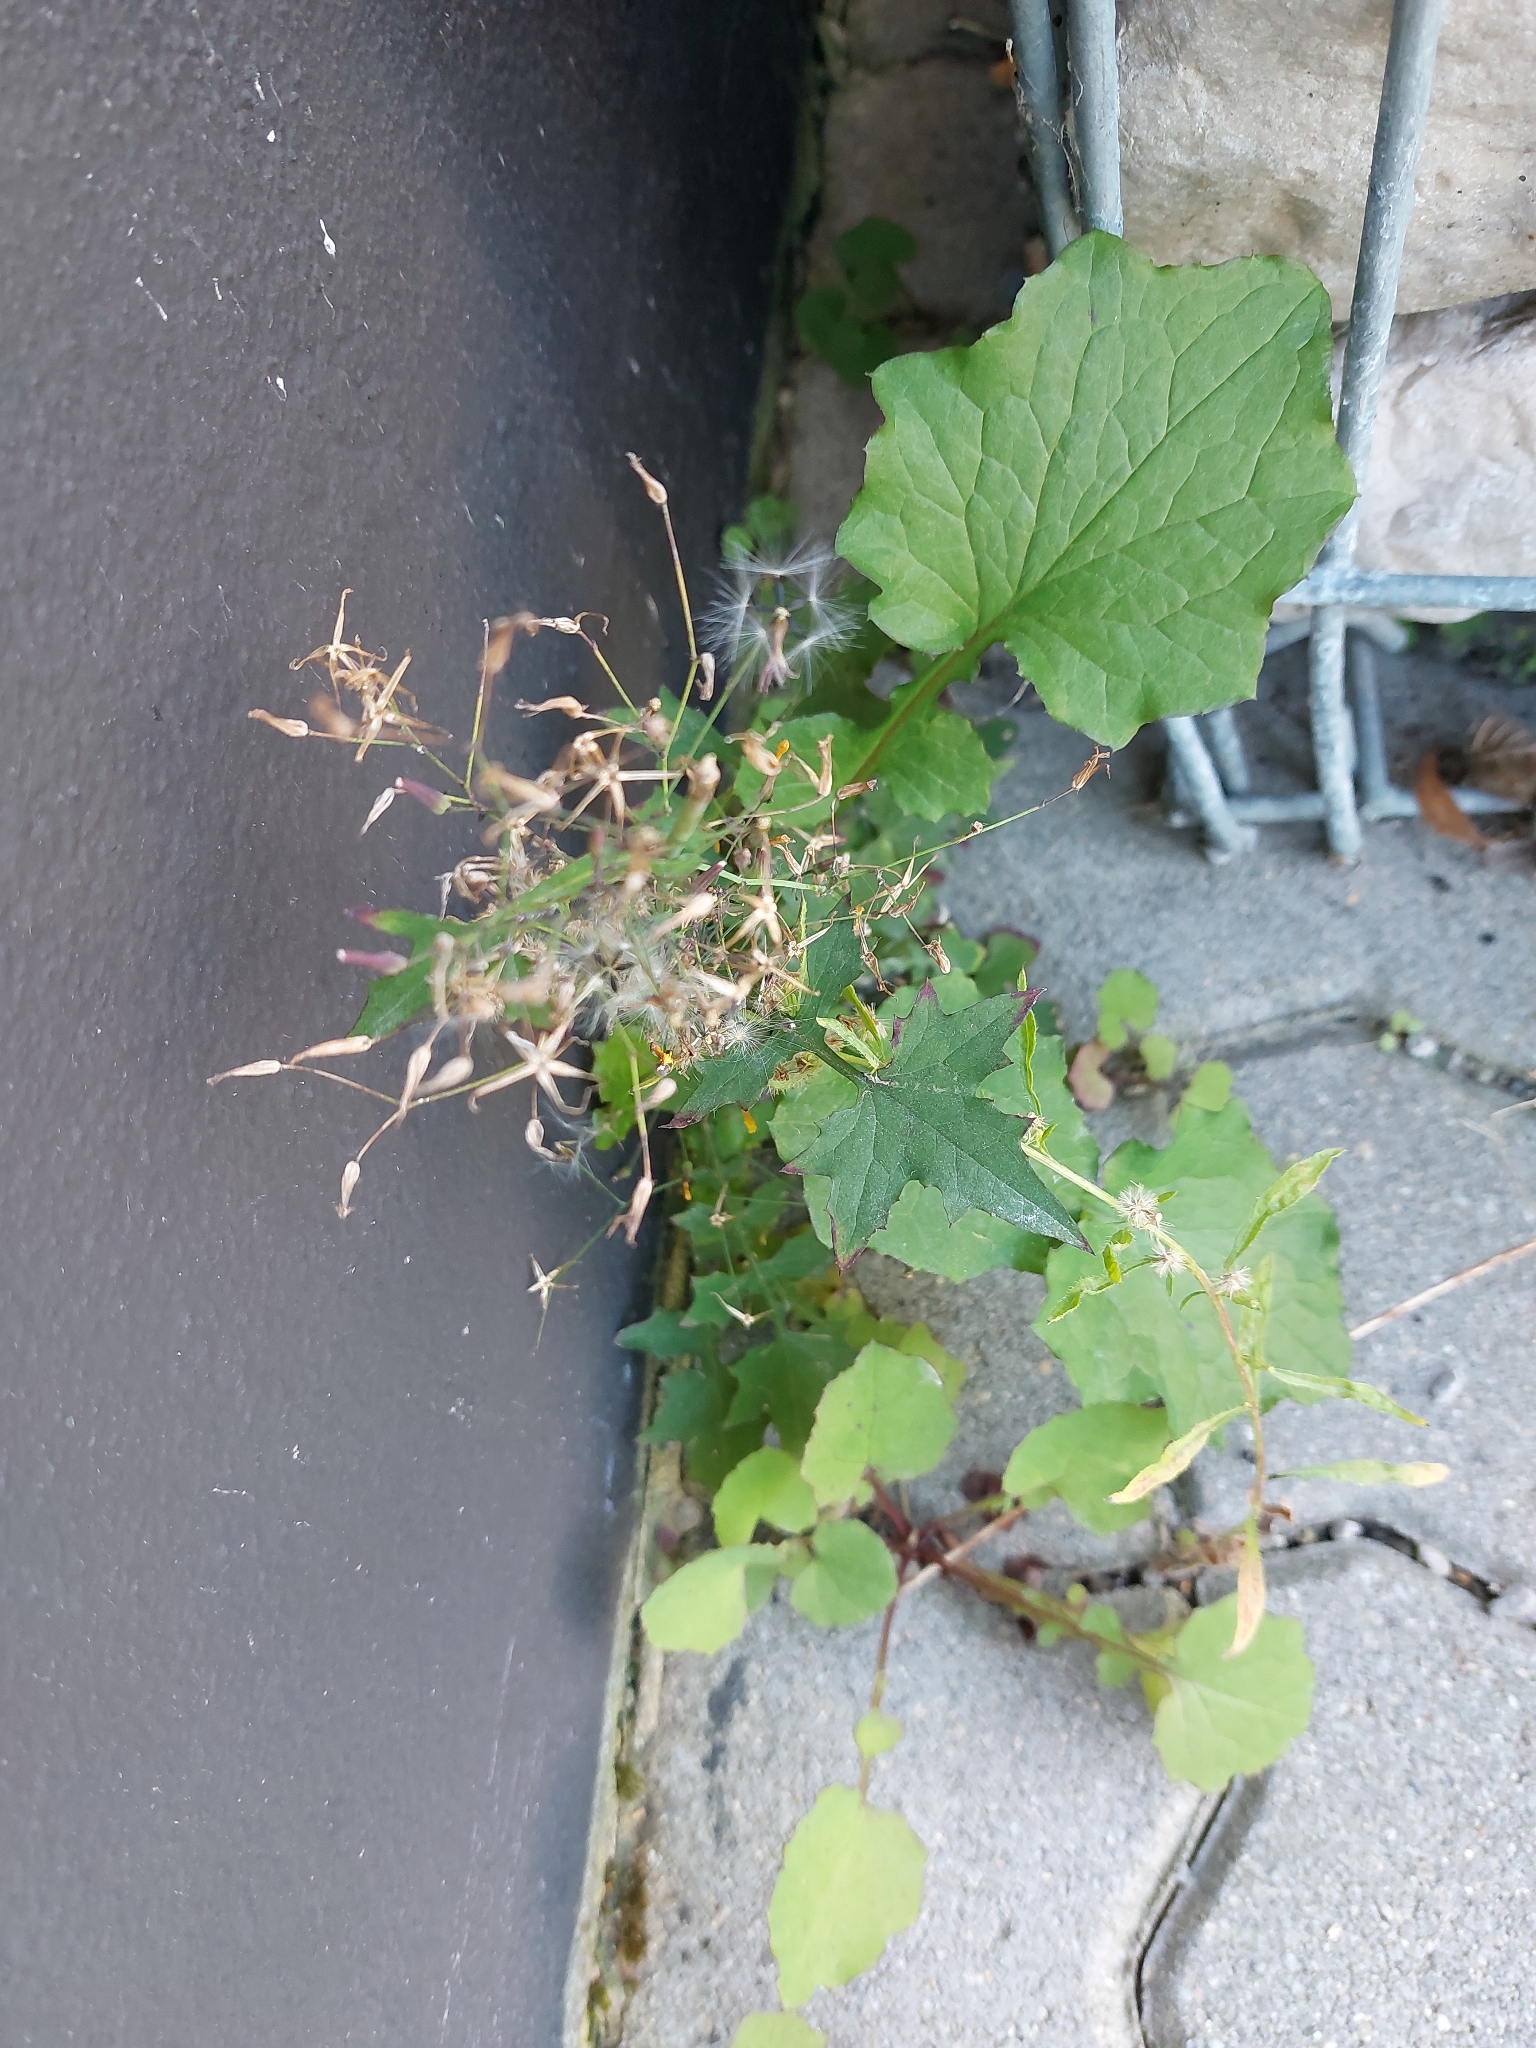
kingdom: Plantae
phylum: Tracheophyta
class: Magnoliopsida
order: Asterales
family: Asteraceae
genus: Mycelis
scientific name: Mycelis muralis
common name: Wall lettuce
